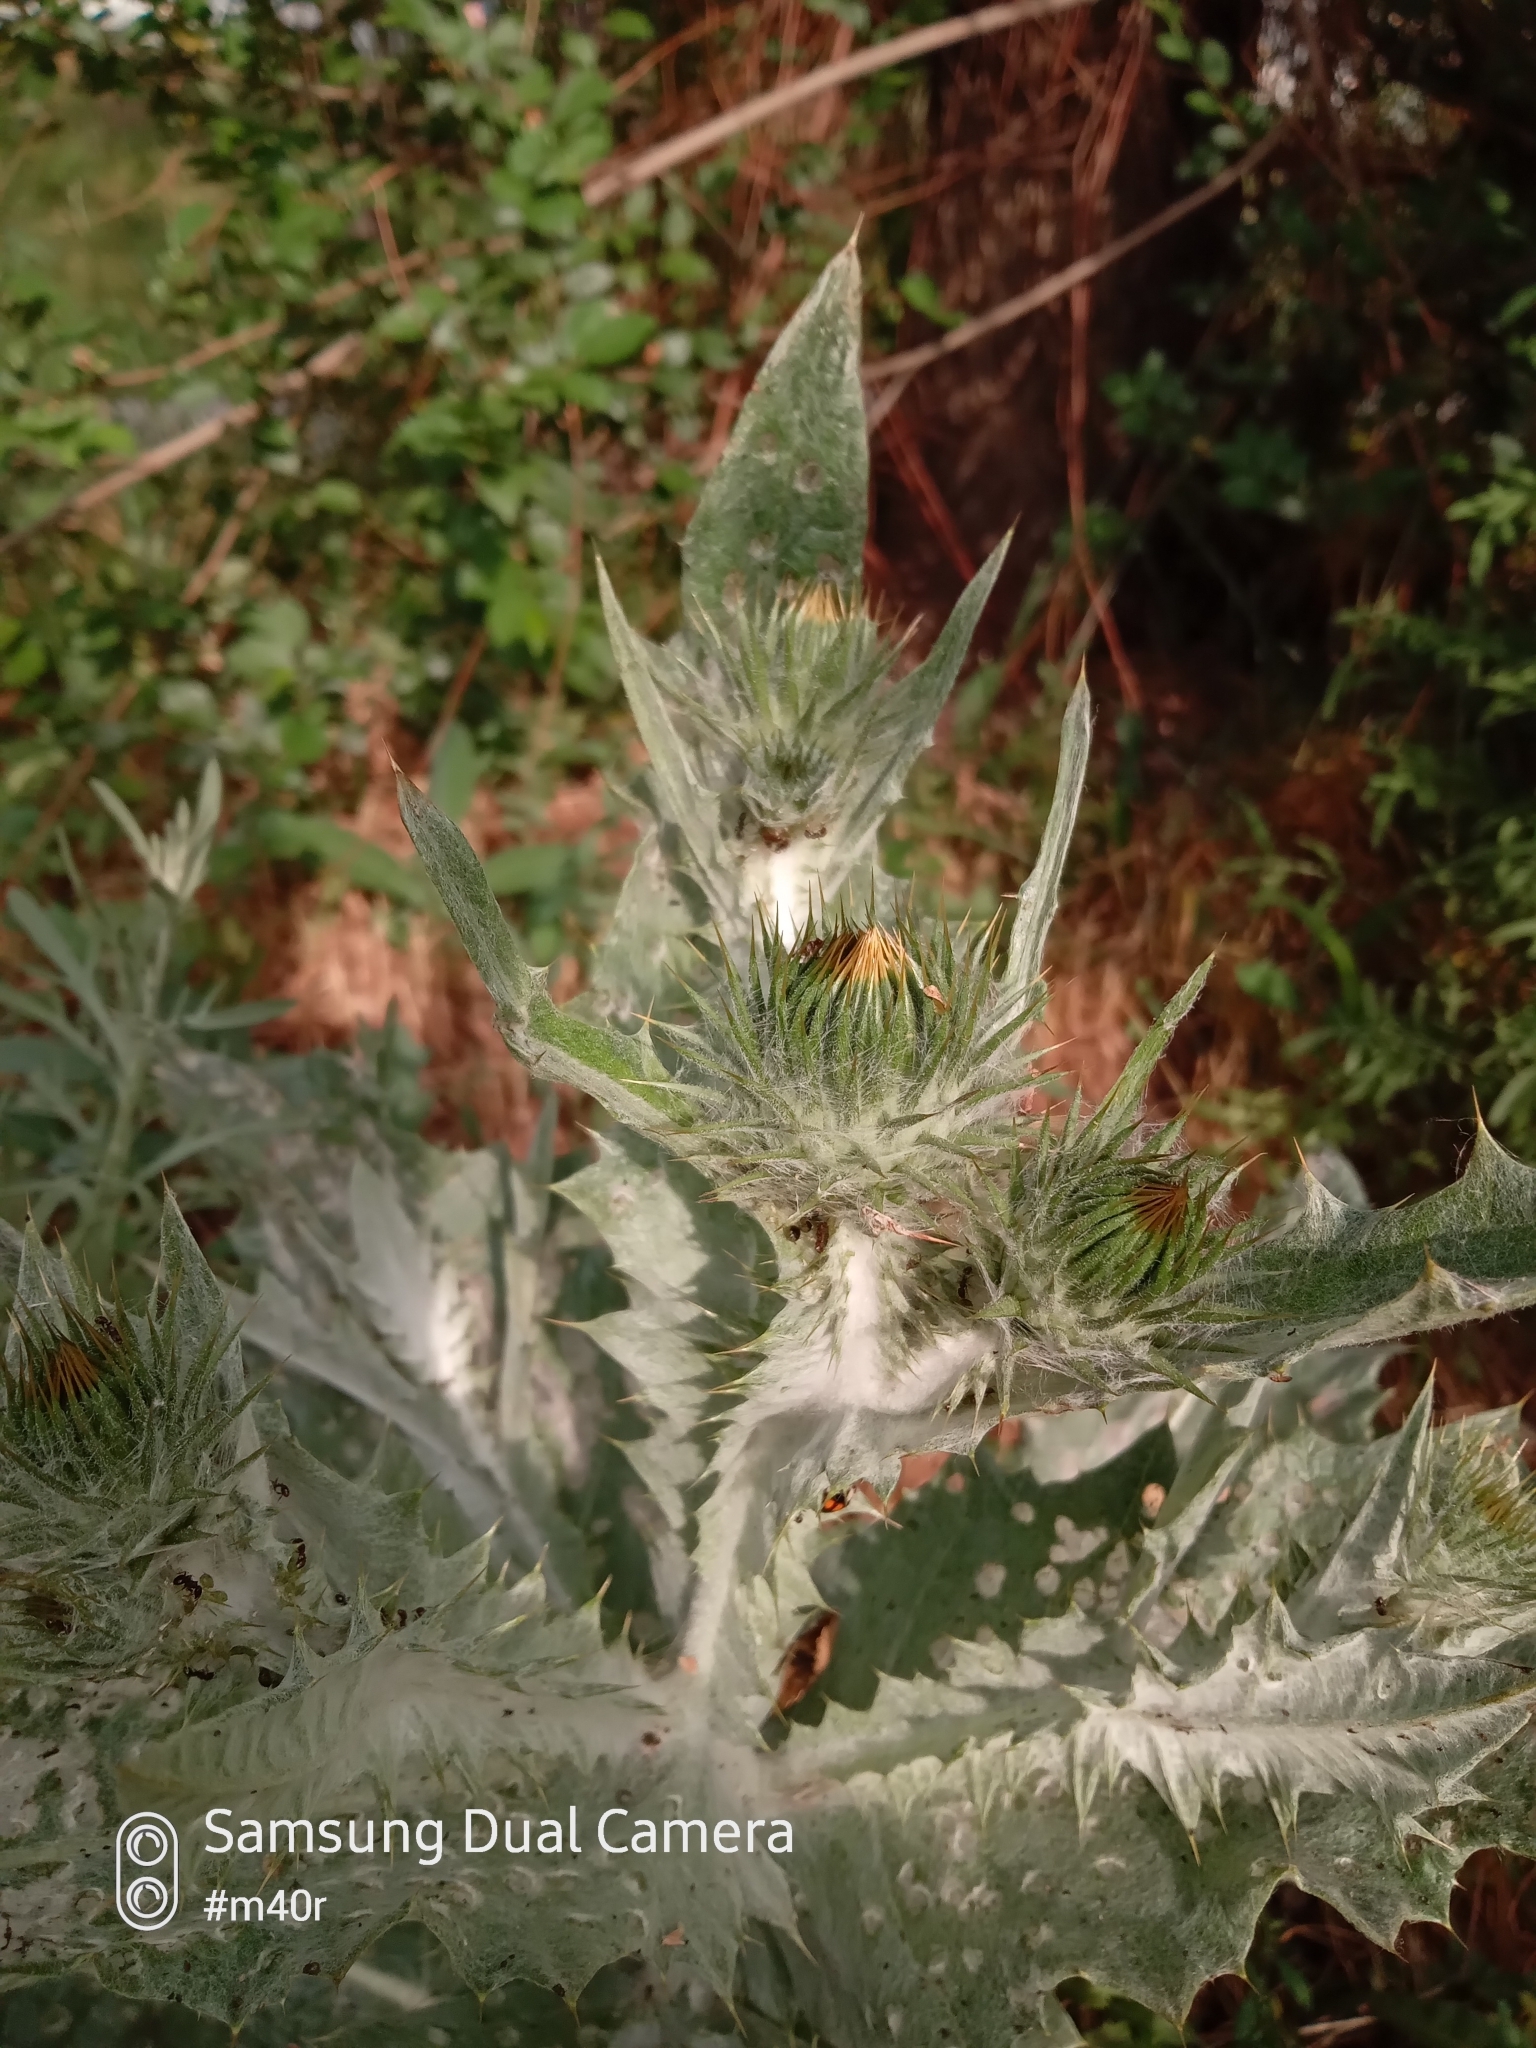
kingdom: Plantae
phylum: Tracheophyta
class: Magnoliopsida
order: Asterales
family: Asteraceae
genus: Onopordum
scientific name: Onopordum acanthium
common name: Scotch thistle
